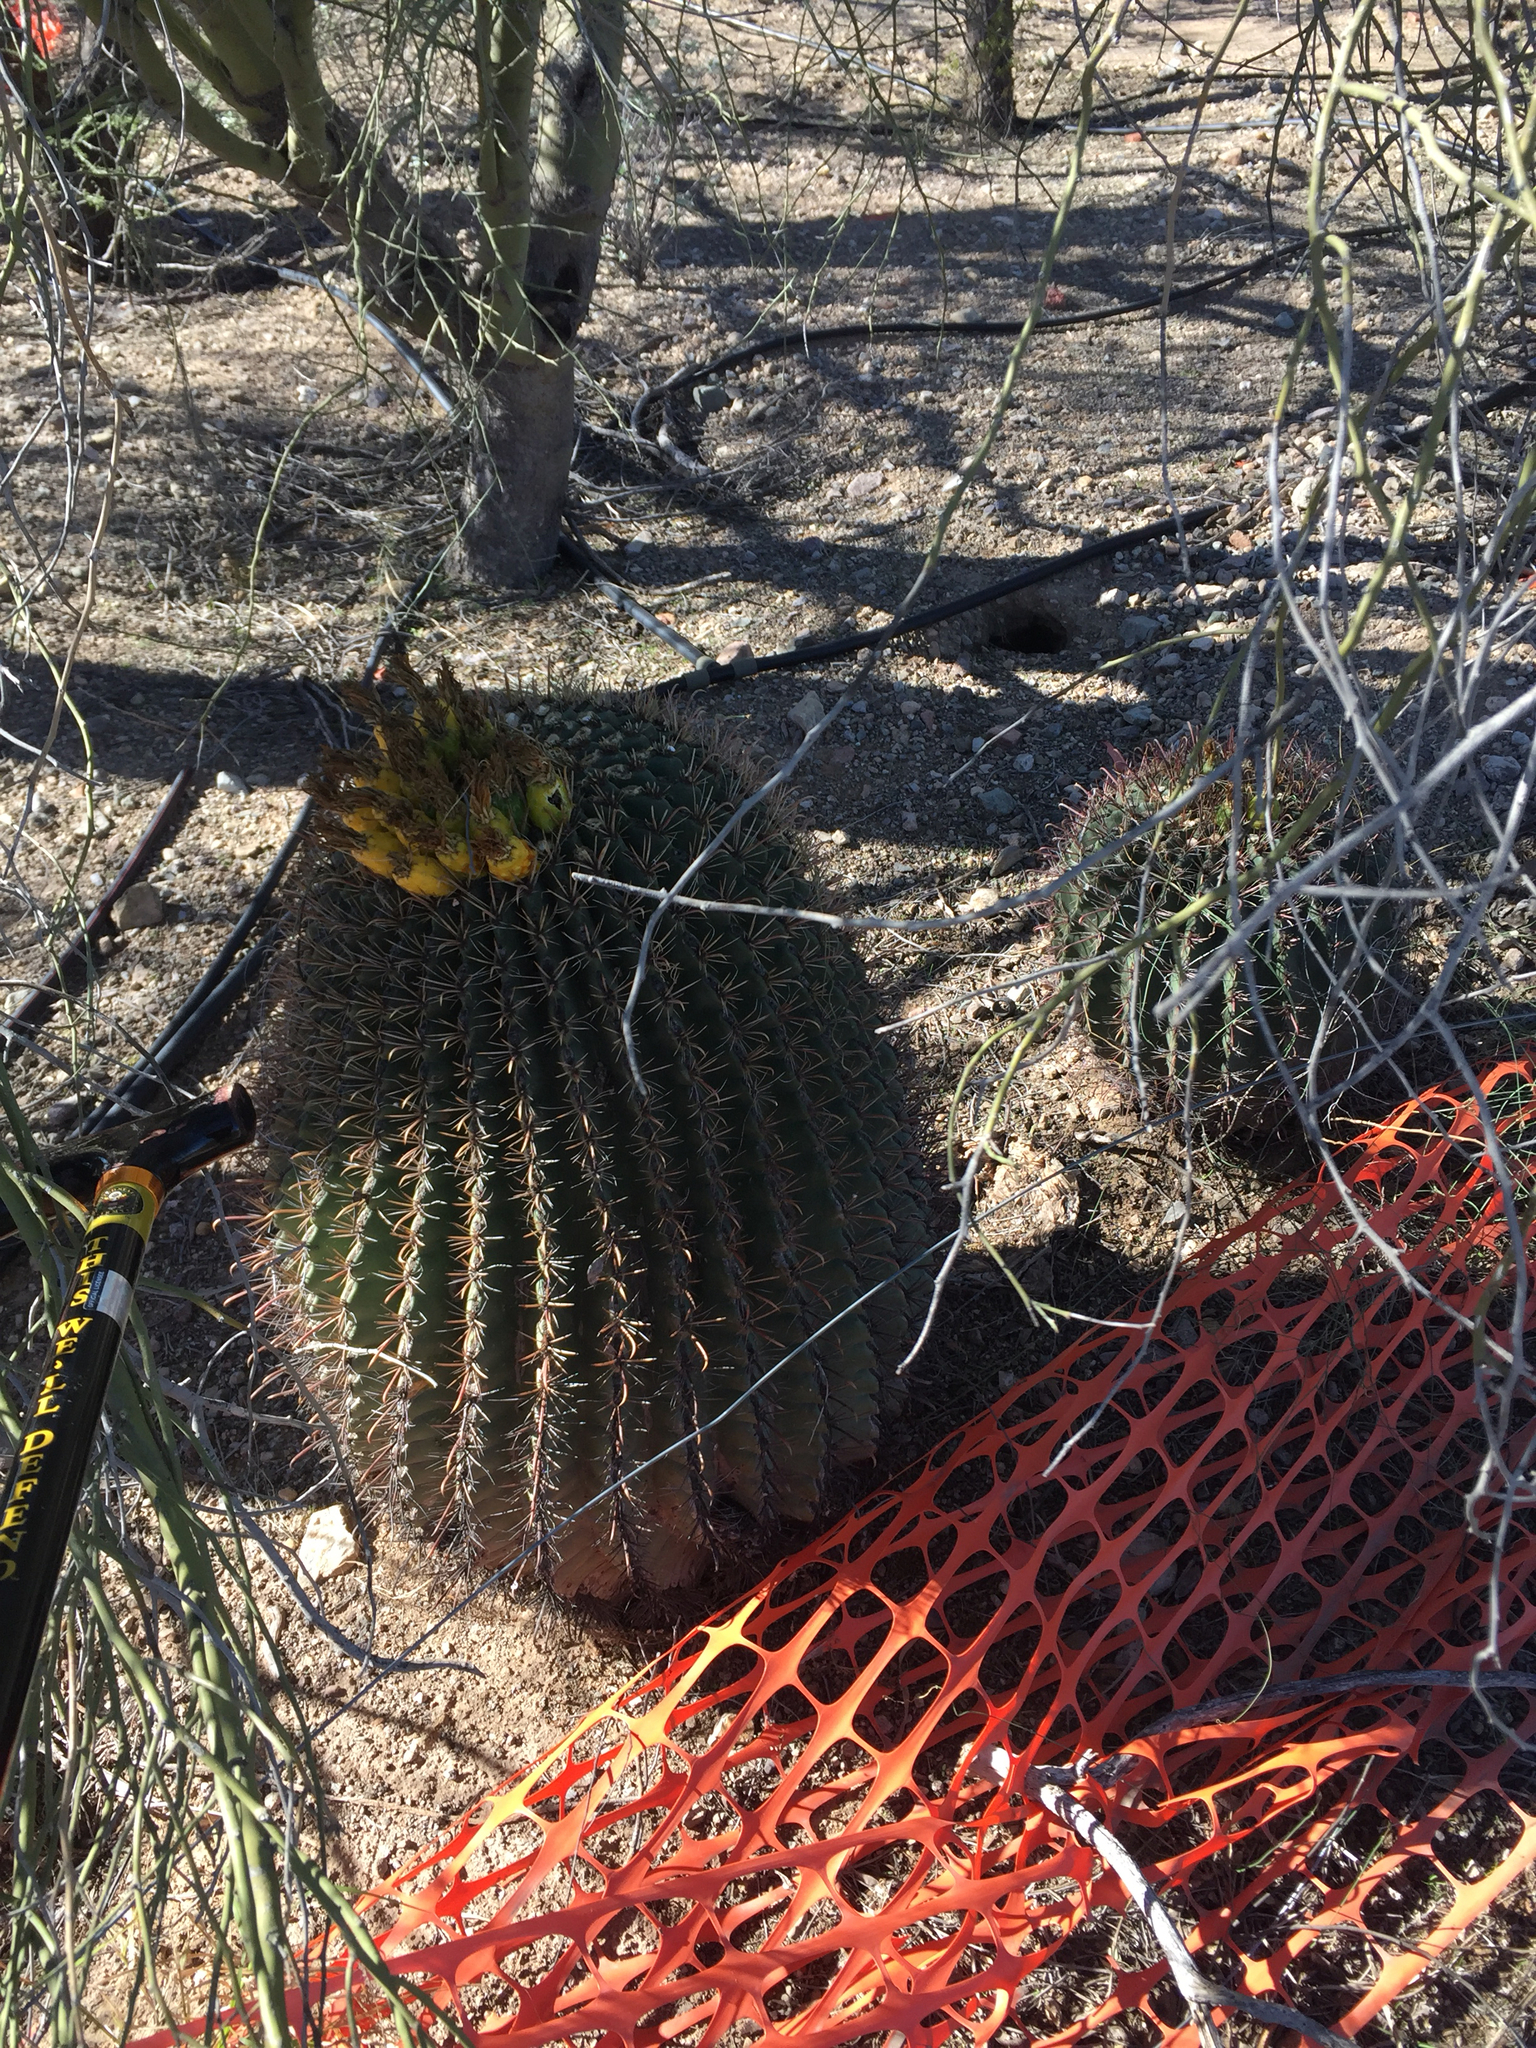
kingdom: Plantae
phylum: Tracheophyta
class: Magnoliopsida
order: Caryophyllales
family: Cactaceae
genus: Ferocactus
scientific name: Ferocactus wislizeni
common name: Candy barrel cactus
